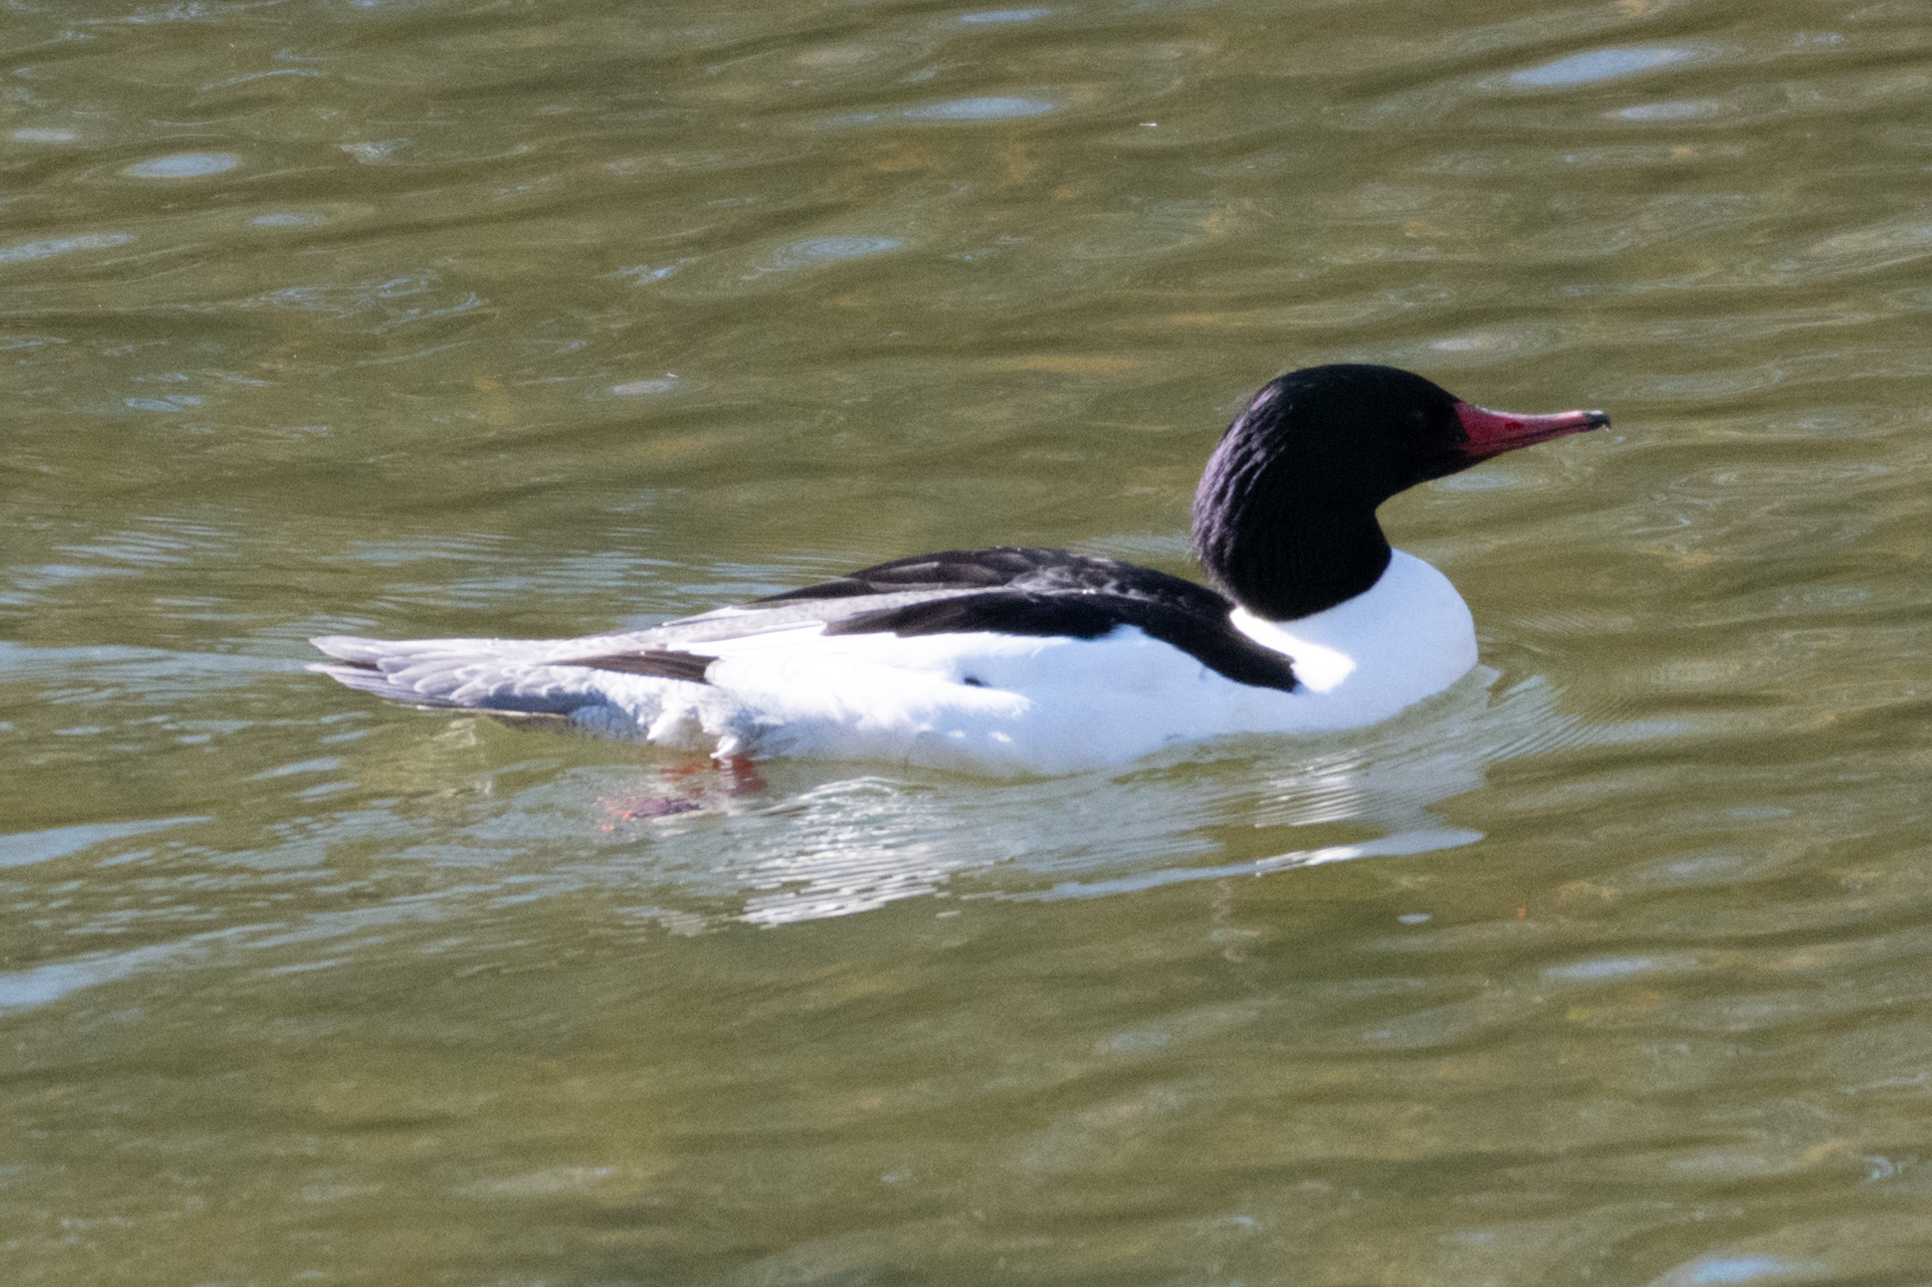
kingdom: Animalia
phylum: Chordata
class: Aves
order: Anseriformes
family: Anatidae
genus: Mergus
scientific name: Mergus merganser
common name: Common merganser
